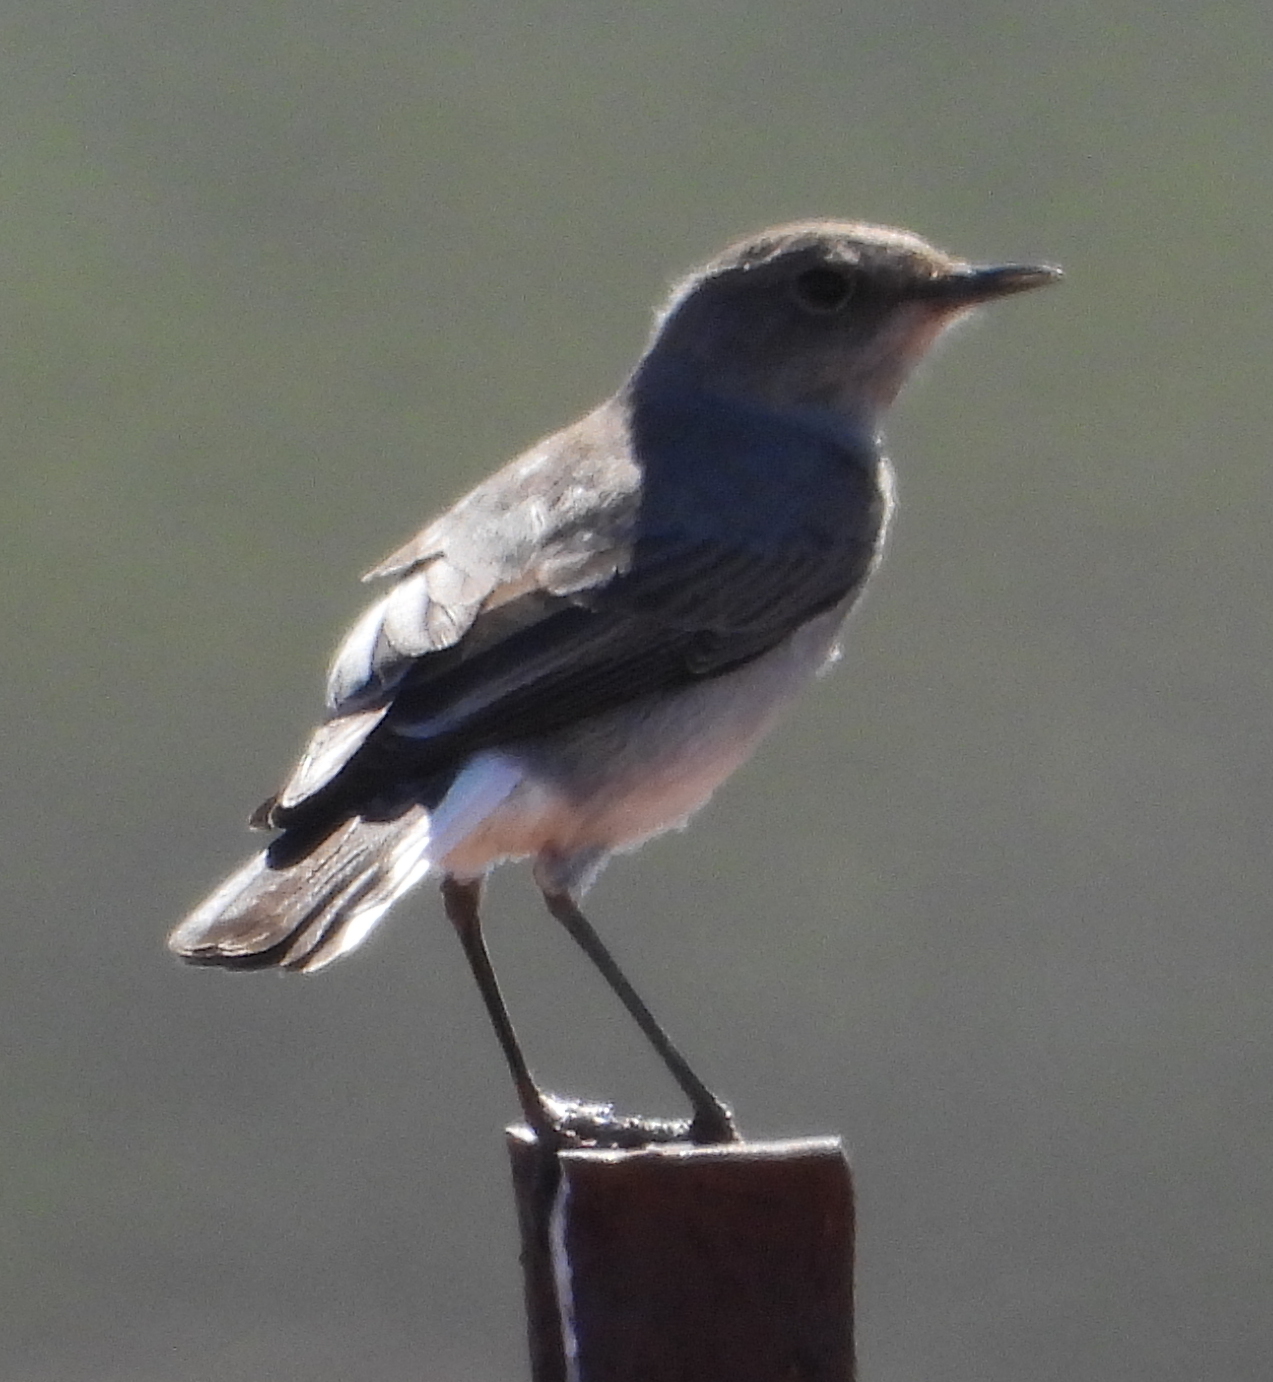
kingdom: Animalia
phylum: Chordata
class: Aves
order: Passeriformes
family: Muscicapidae
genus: Emarginata
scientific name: Emarginata schlegelii
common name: Karoo chat
